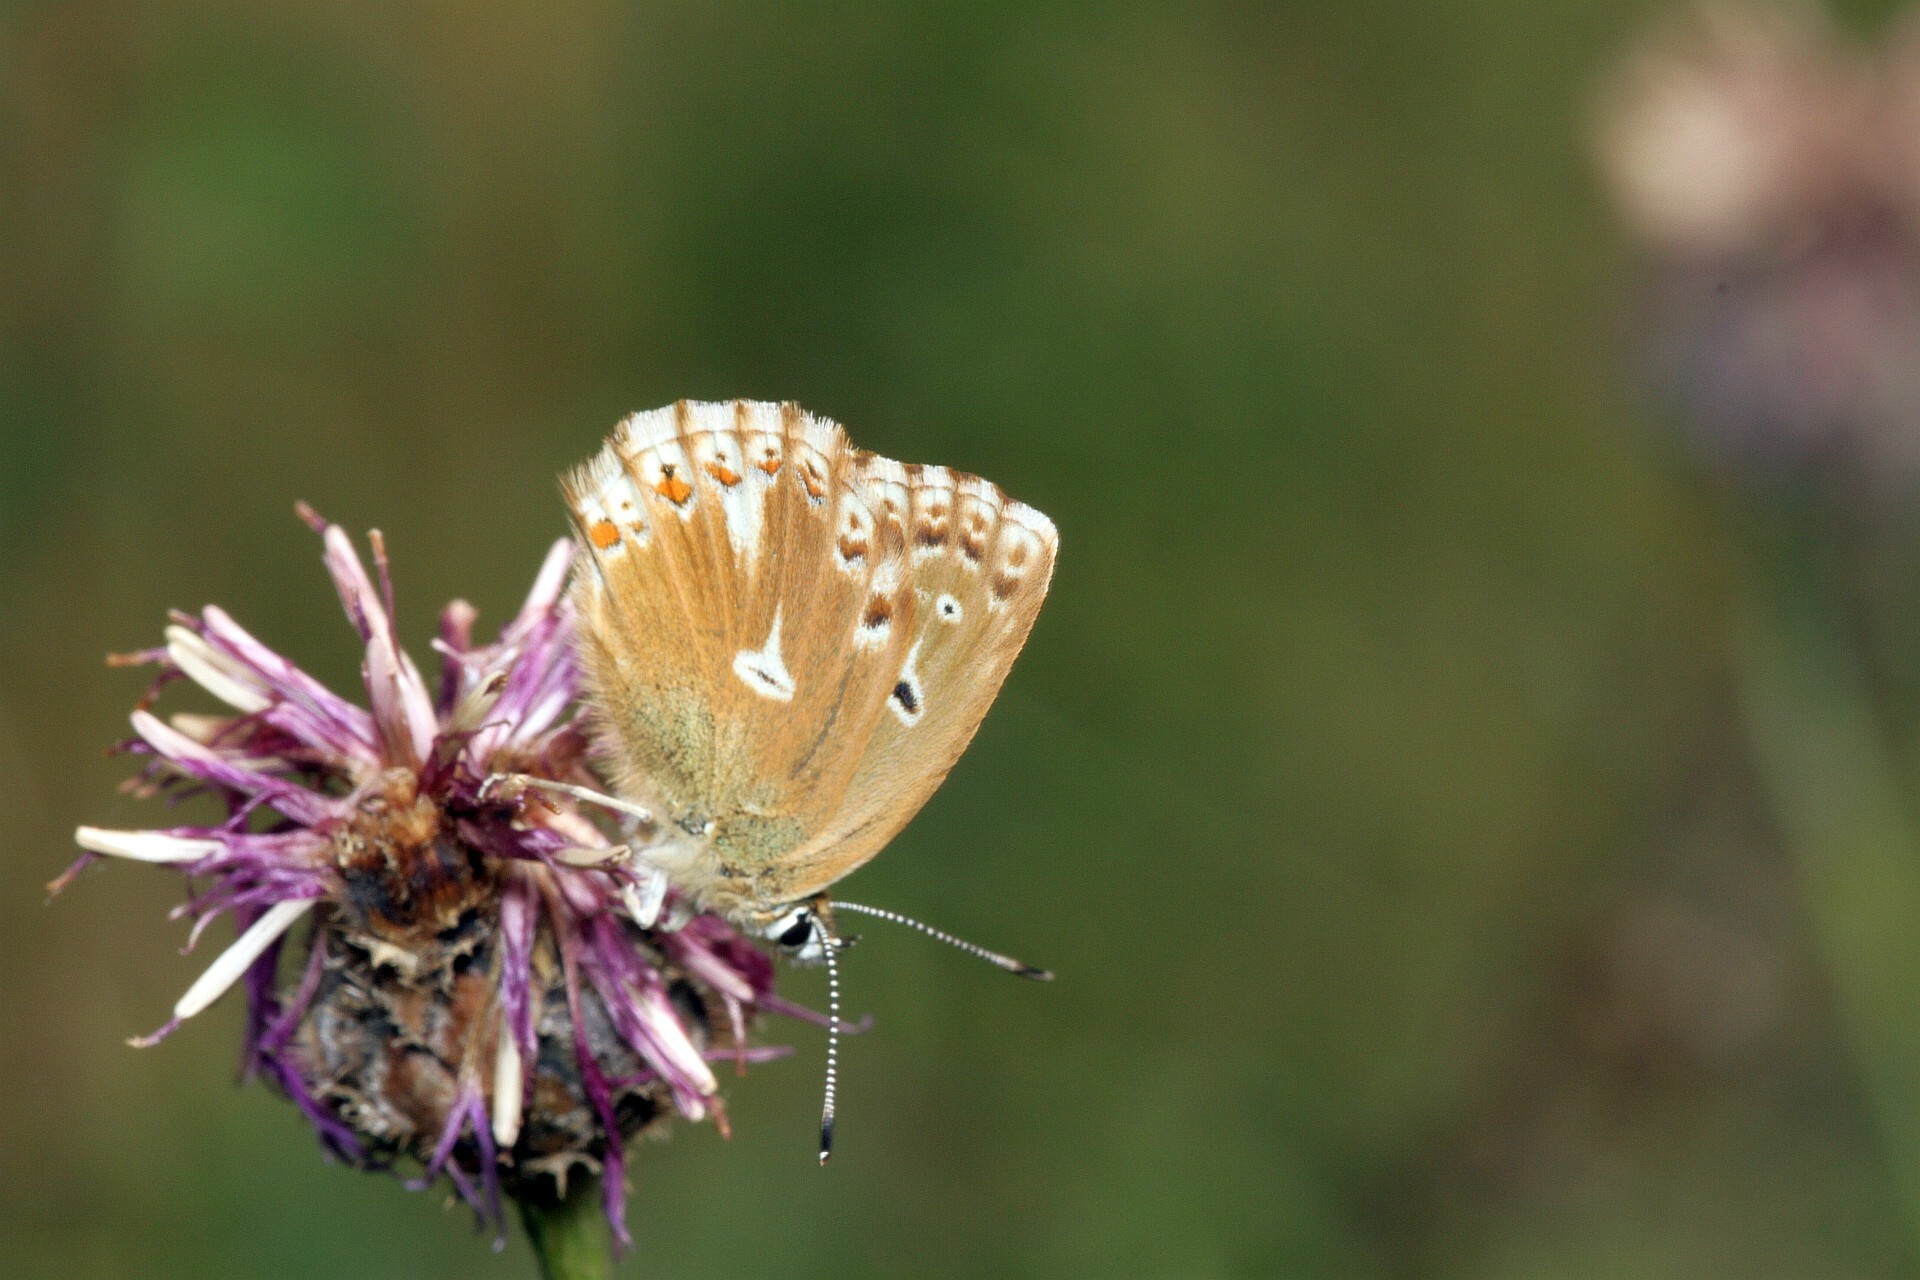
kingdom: Animalia
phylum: Arthropoda
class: Insecta
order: Lepidoptera
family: Lycaenidae
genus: Lysandra
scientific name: Lysandra coridon
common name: Chalkhill blue
